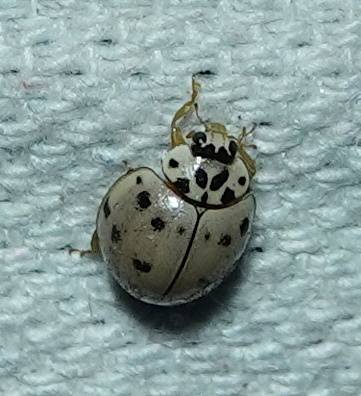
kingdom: Animalia
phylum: Arthropoda
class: Insecta
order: Coleoptera
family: Coccinellidae
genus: Olla
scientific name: Olla v-nigrum
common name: Ashy gray lady beetle
